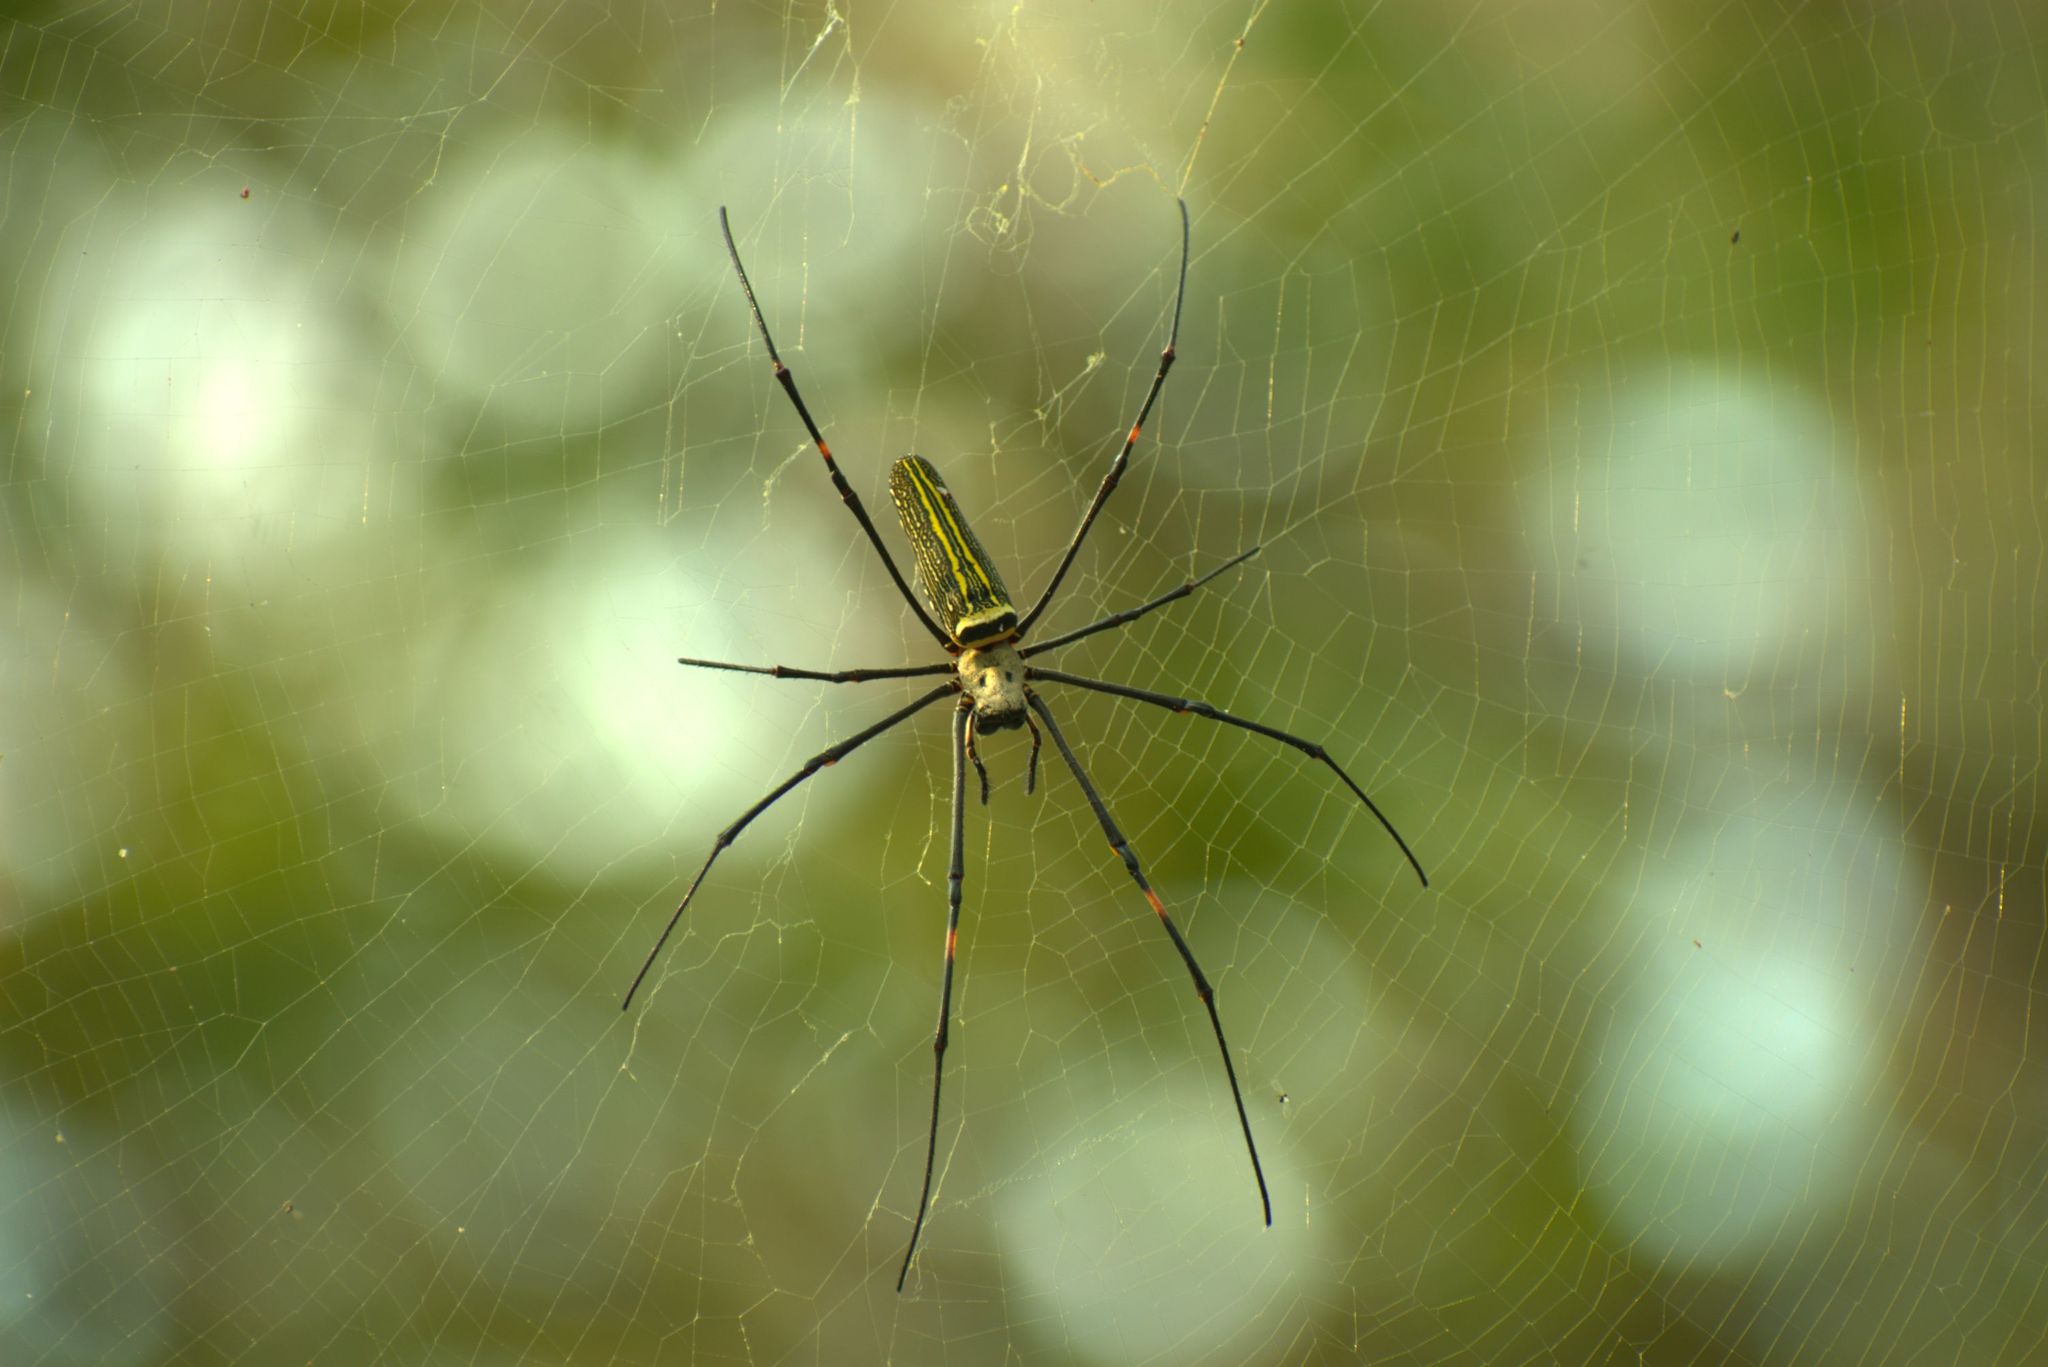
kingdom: Animalia
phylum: Arthropoda
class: Arachnida
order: Araneae
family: Araneidae
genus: Nephila
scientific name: Nephila pilipes
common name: Giant golden orb weaver
